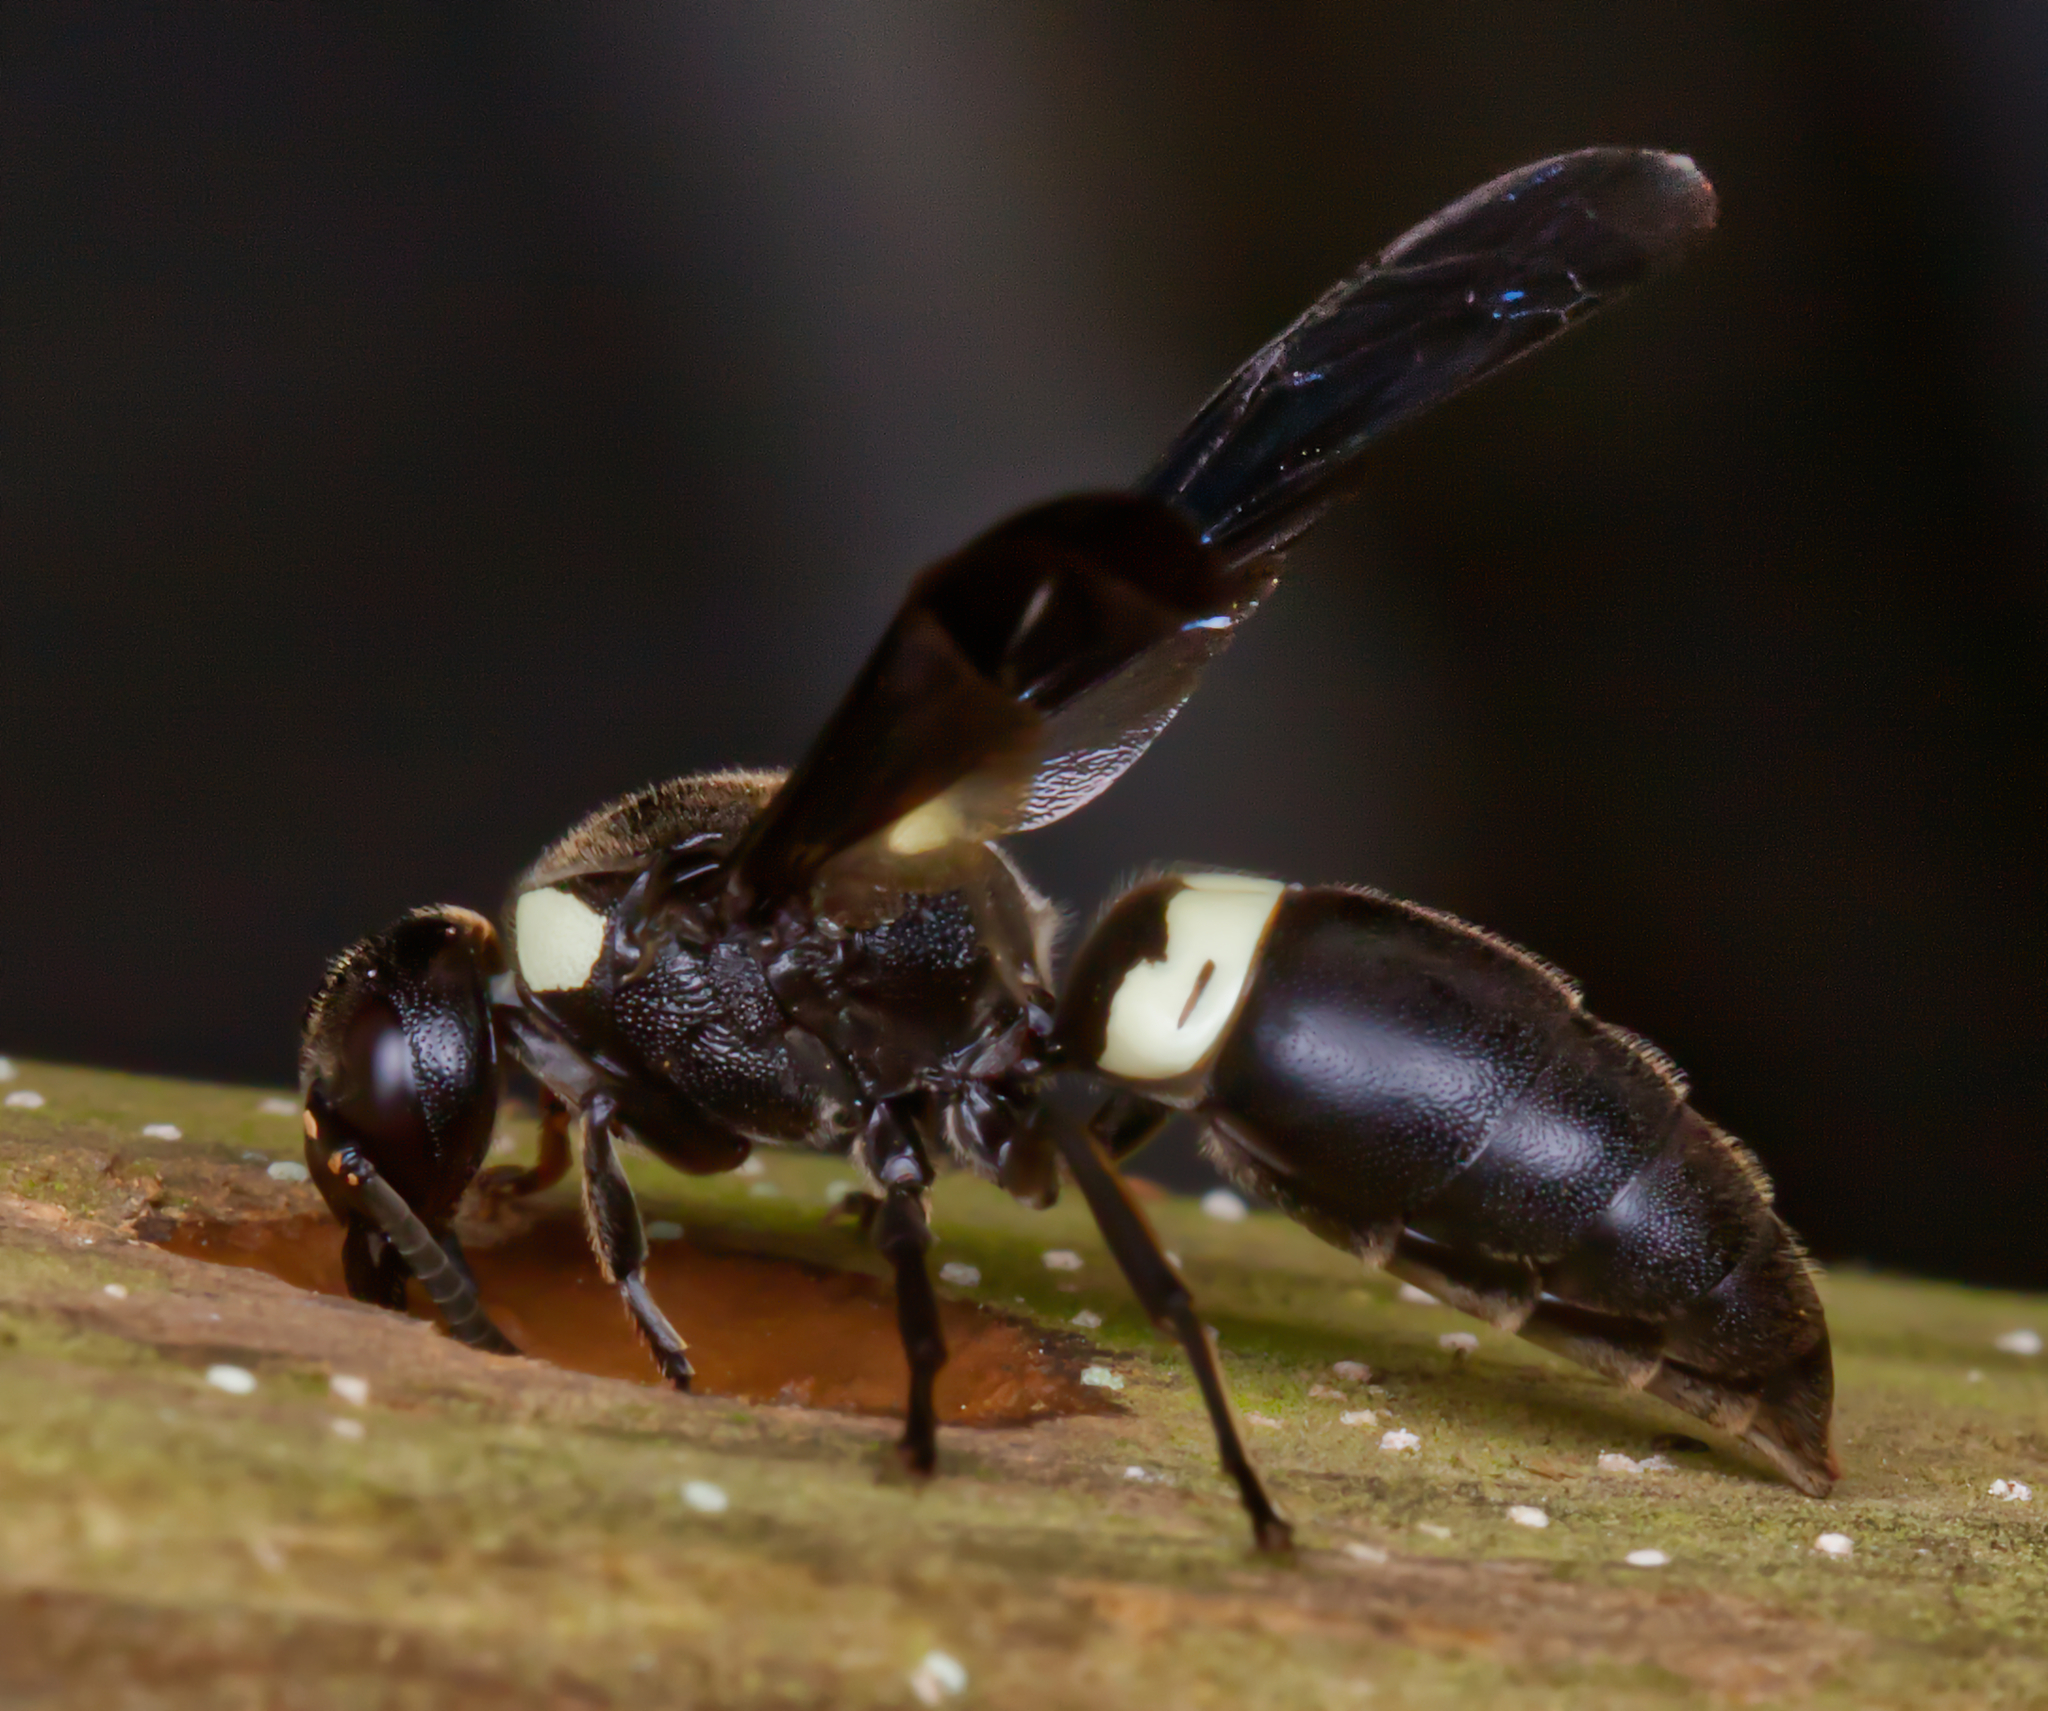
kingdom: Animalia
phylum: Arthropoda
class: Insecta
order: Hymenoptera
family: Eumenidae
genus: Monobia
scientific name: Monobia quadridens
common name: Four-toothed mason wasp
